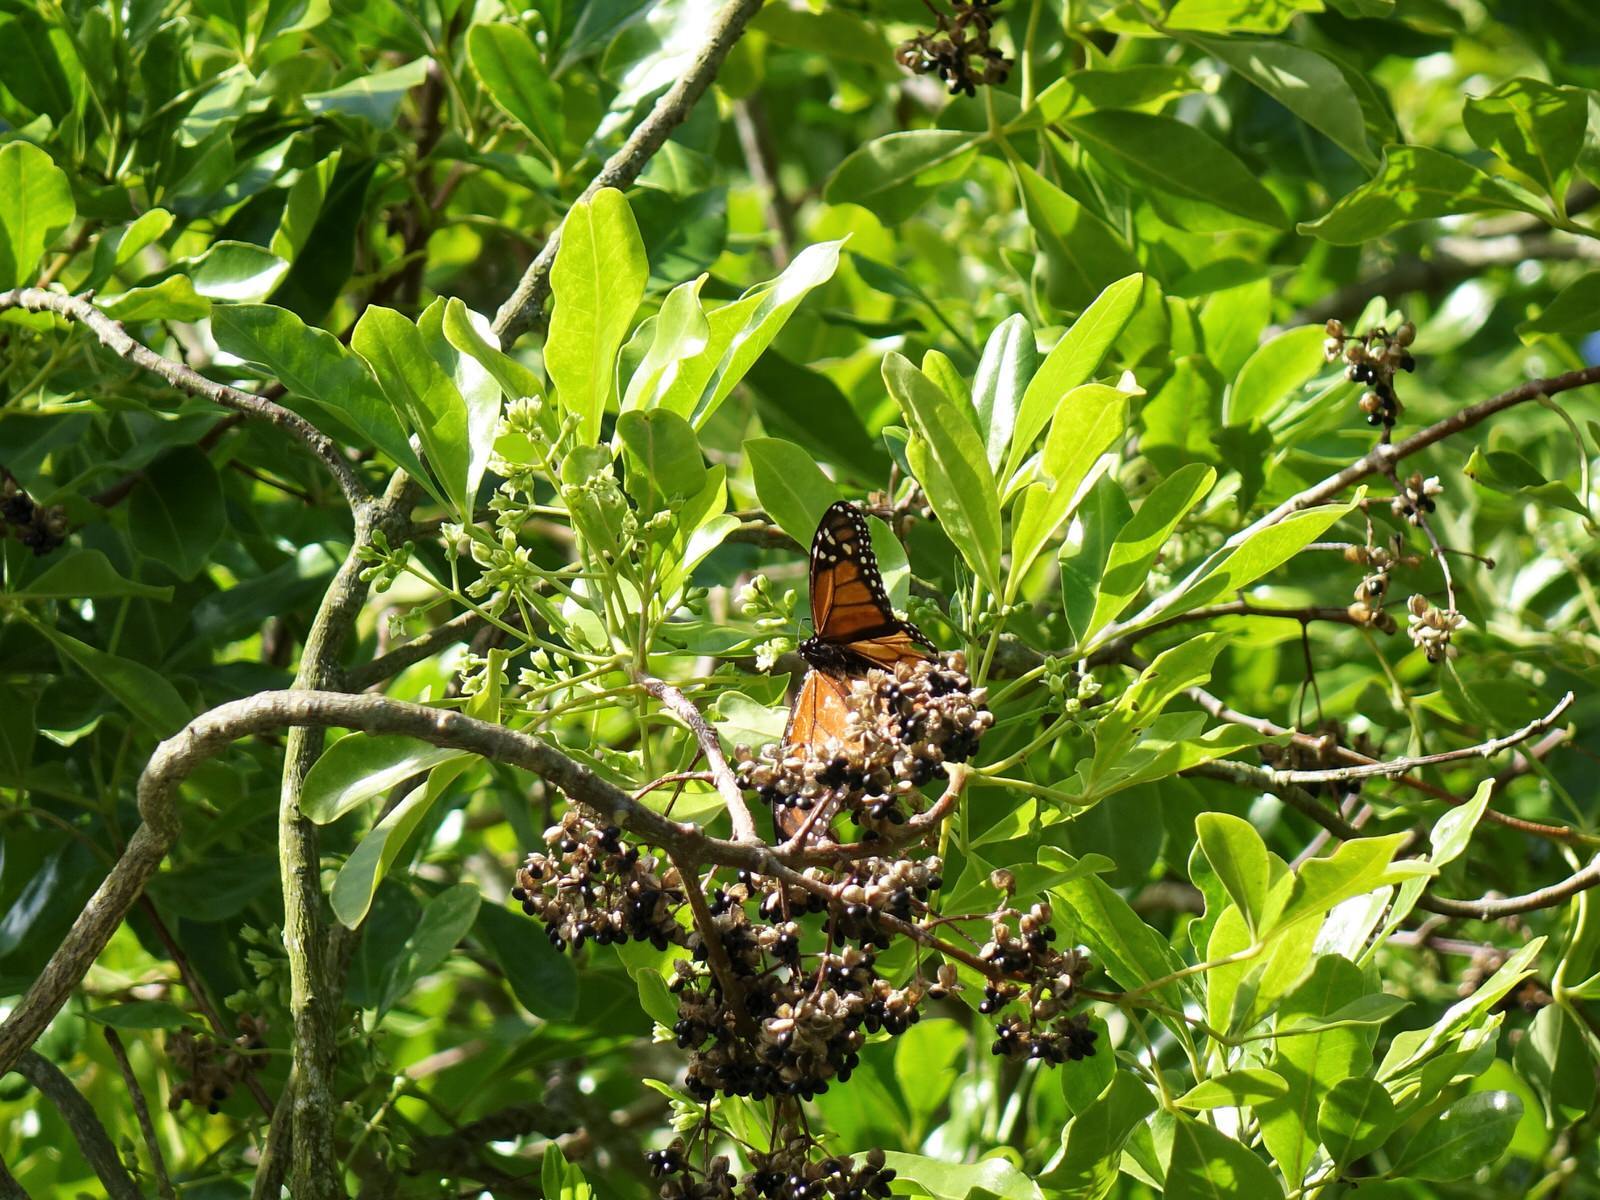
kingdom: Animalia
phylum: Arthropoda
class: Insecta
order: Lepidoptera
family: Nymphalidae
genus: Danaus
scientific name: Danaus plexippus
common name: Monarch
